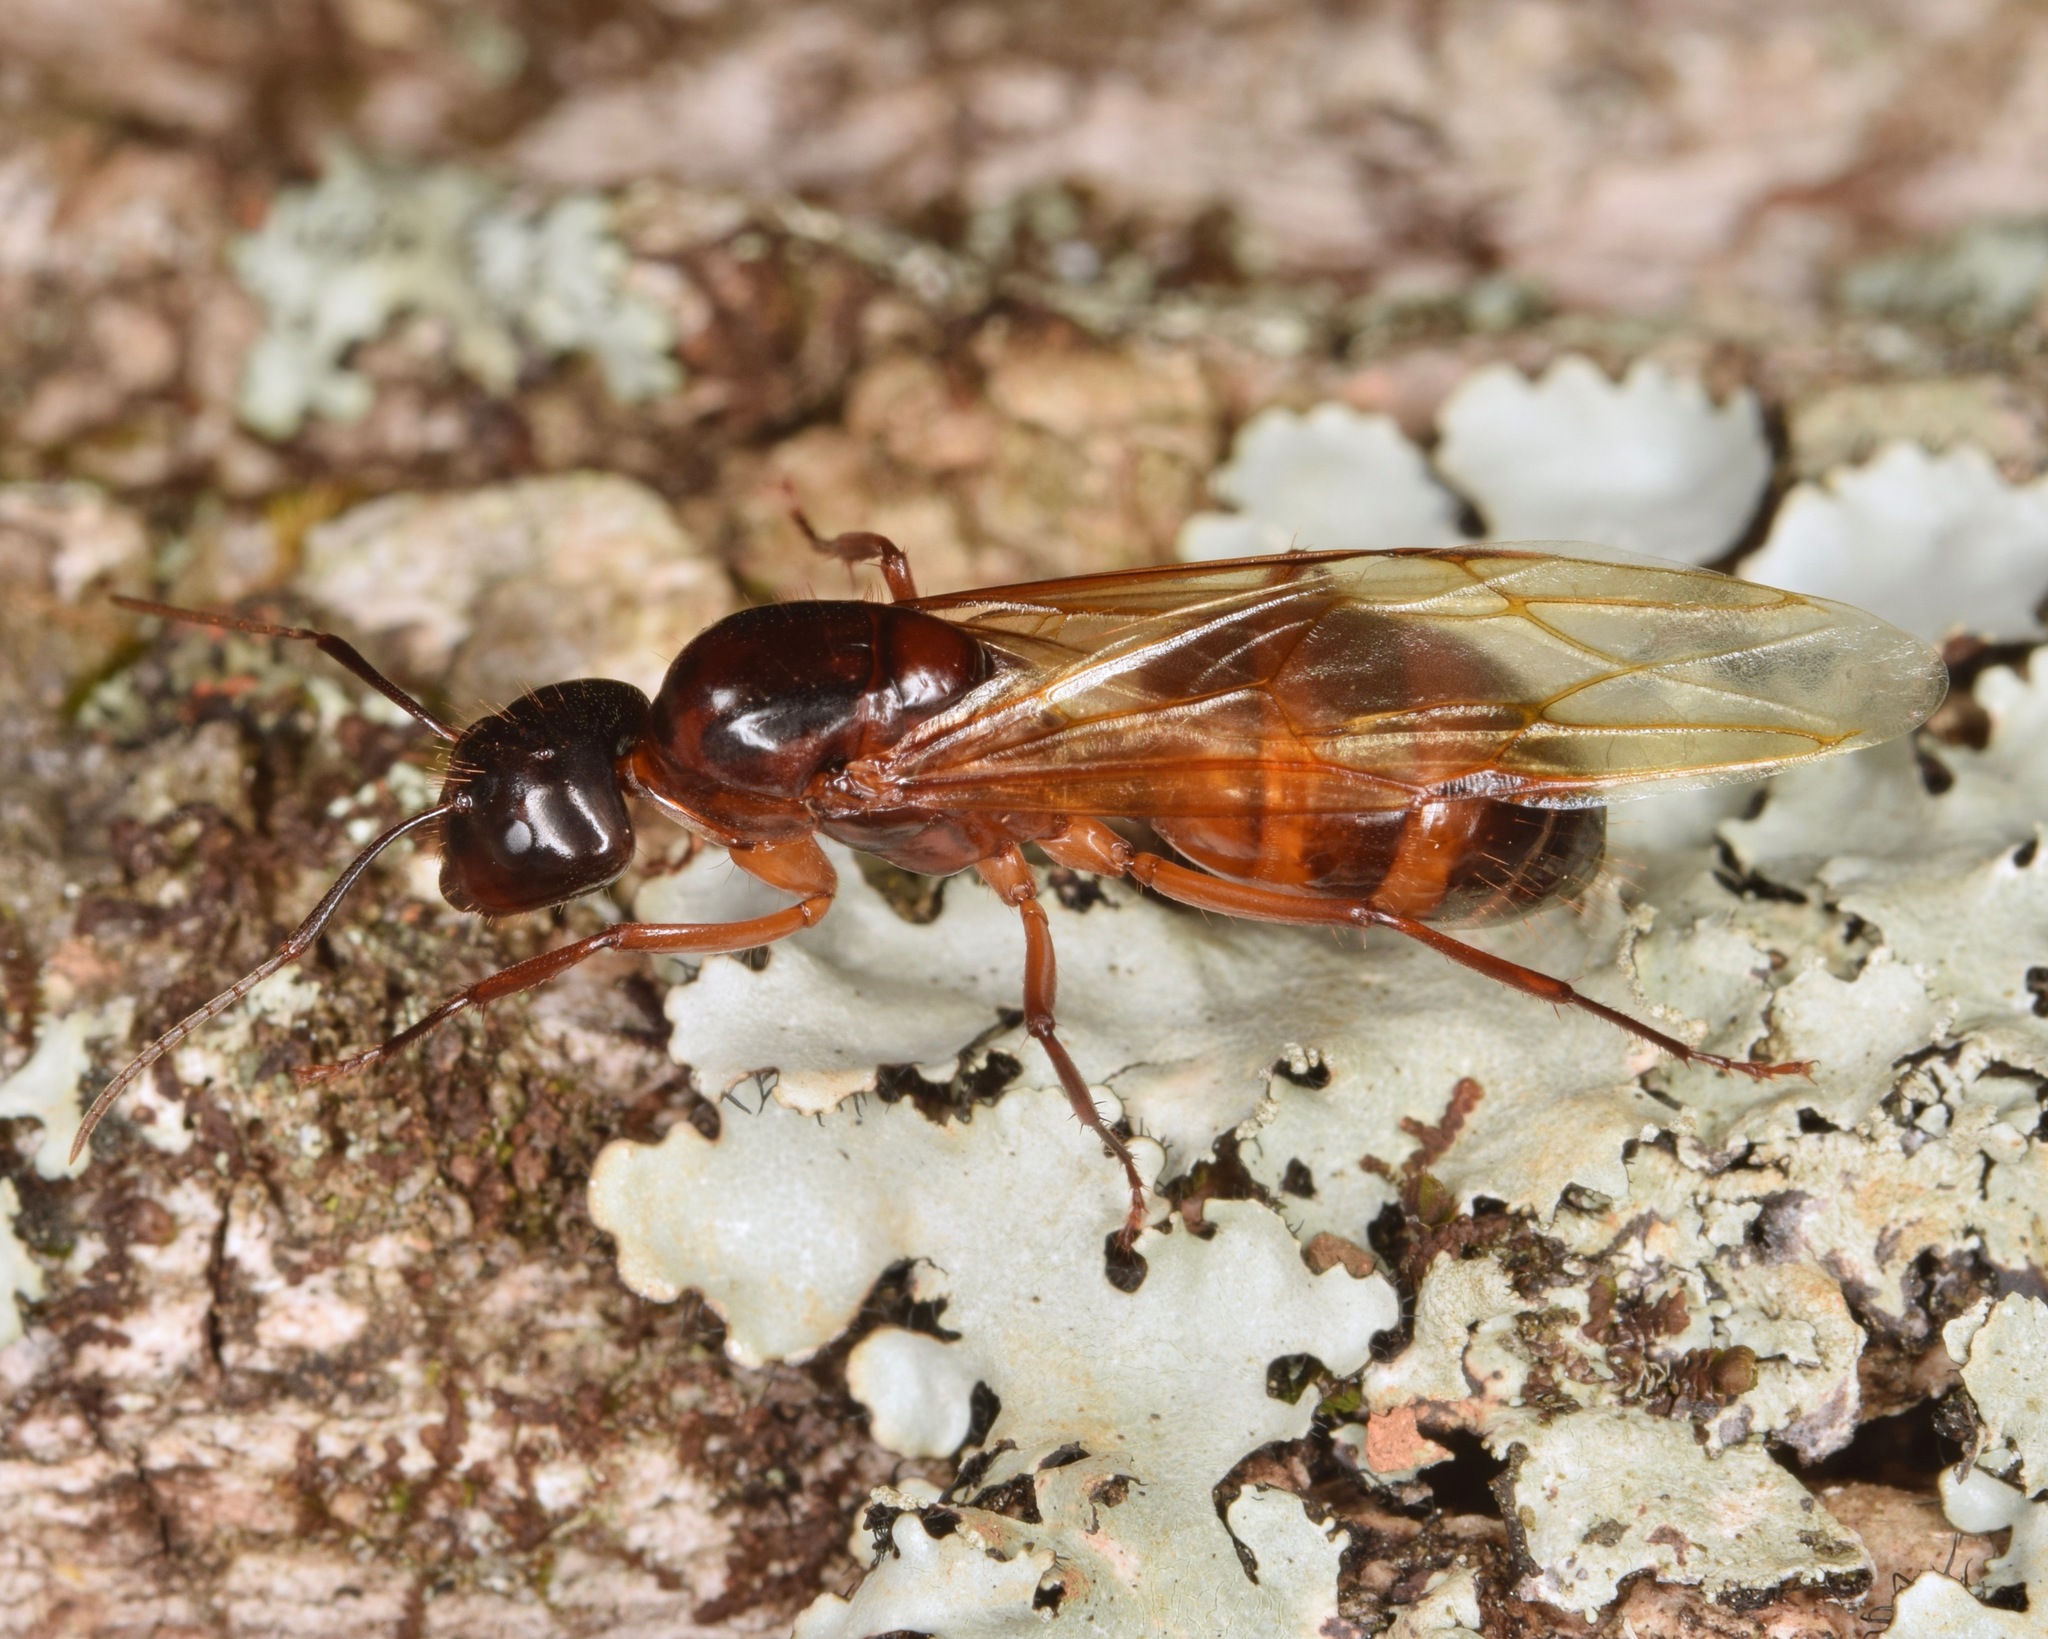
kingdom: Animalia
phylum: Arthropoda
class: Insecta
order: Hymenoptera
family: Formicidae
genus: Camponotus
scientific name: Camponotus americanus
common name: American carpenter ant
